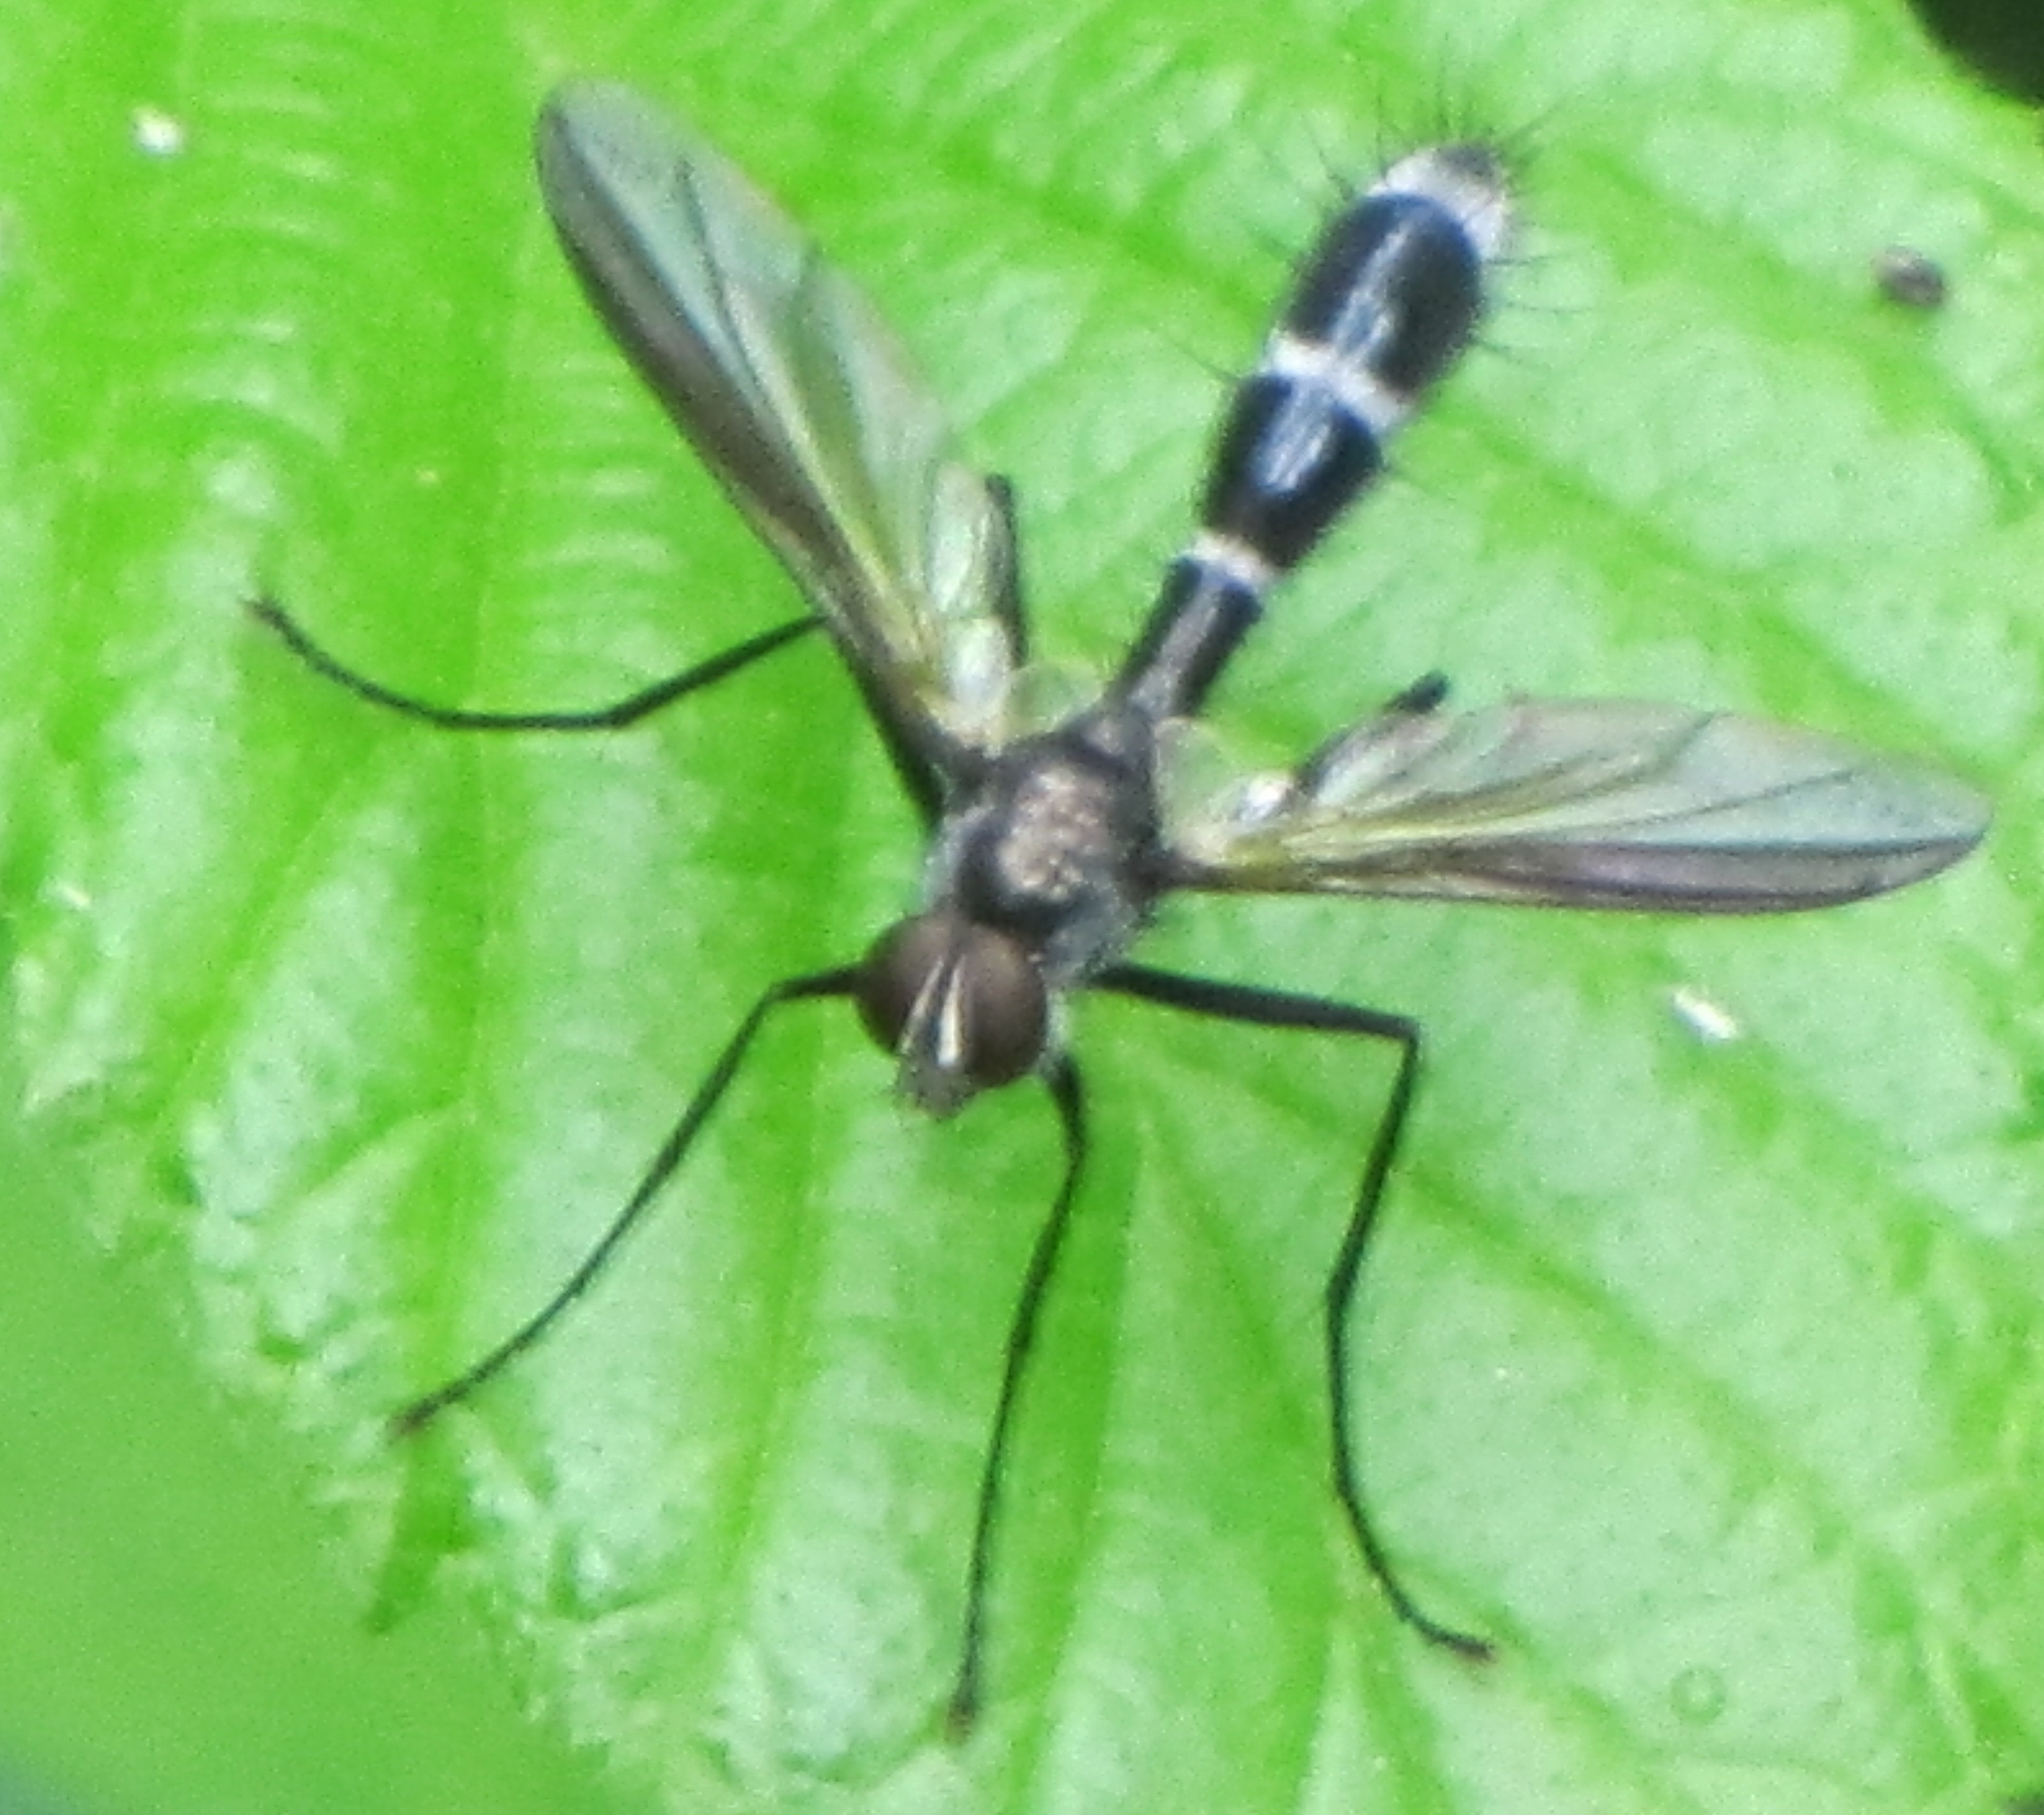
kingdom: Animalia
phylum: Arthropoda
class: Insecta
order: Diptera
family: Tachinidae
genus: Cordyligaster
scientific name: Cordyligaster septentrionalis
